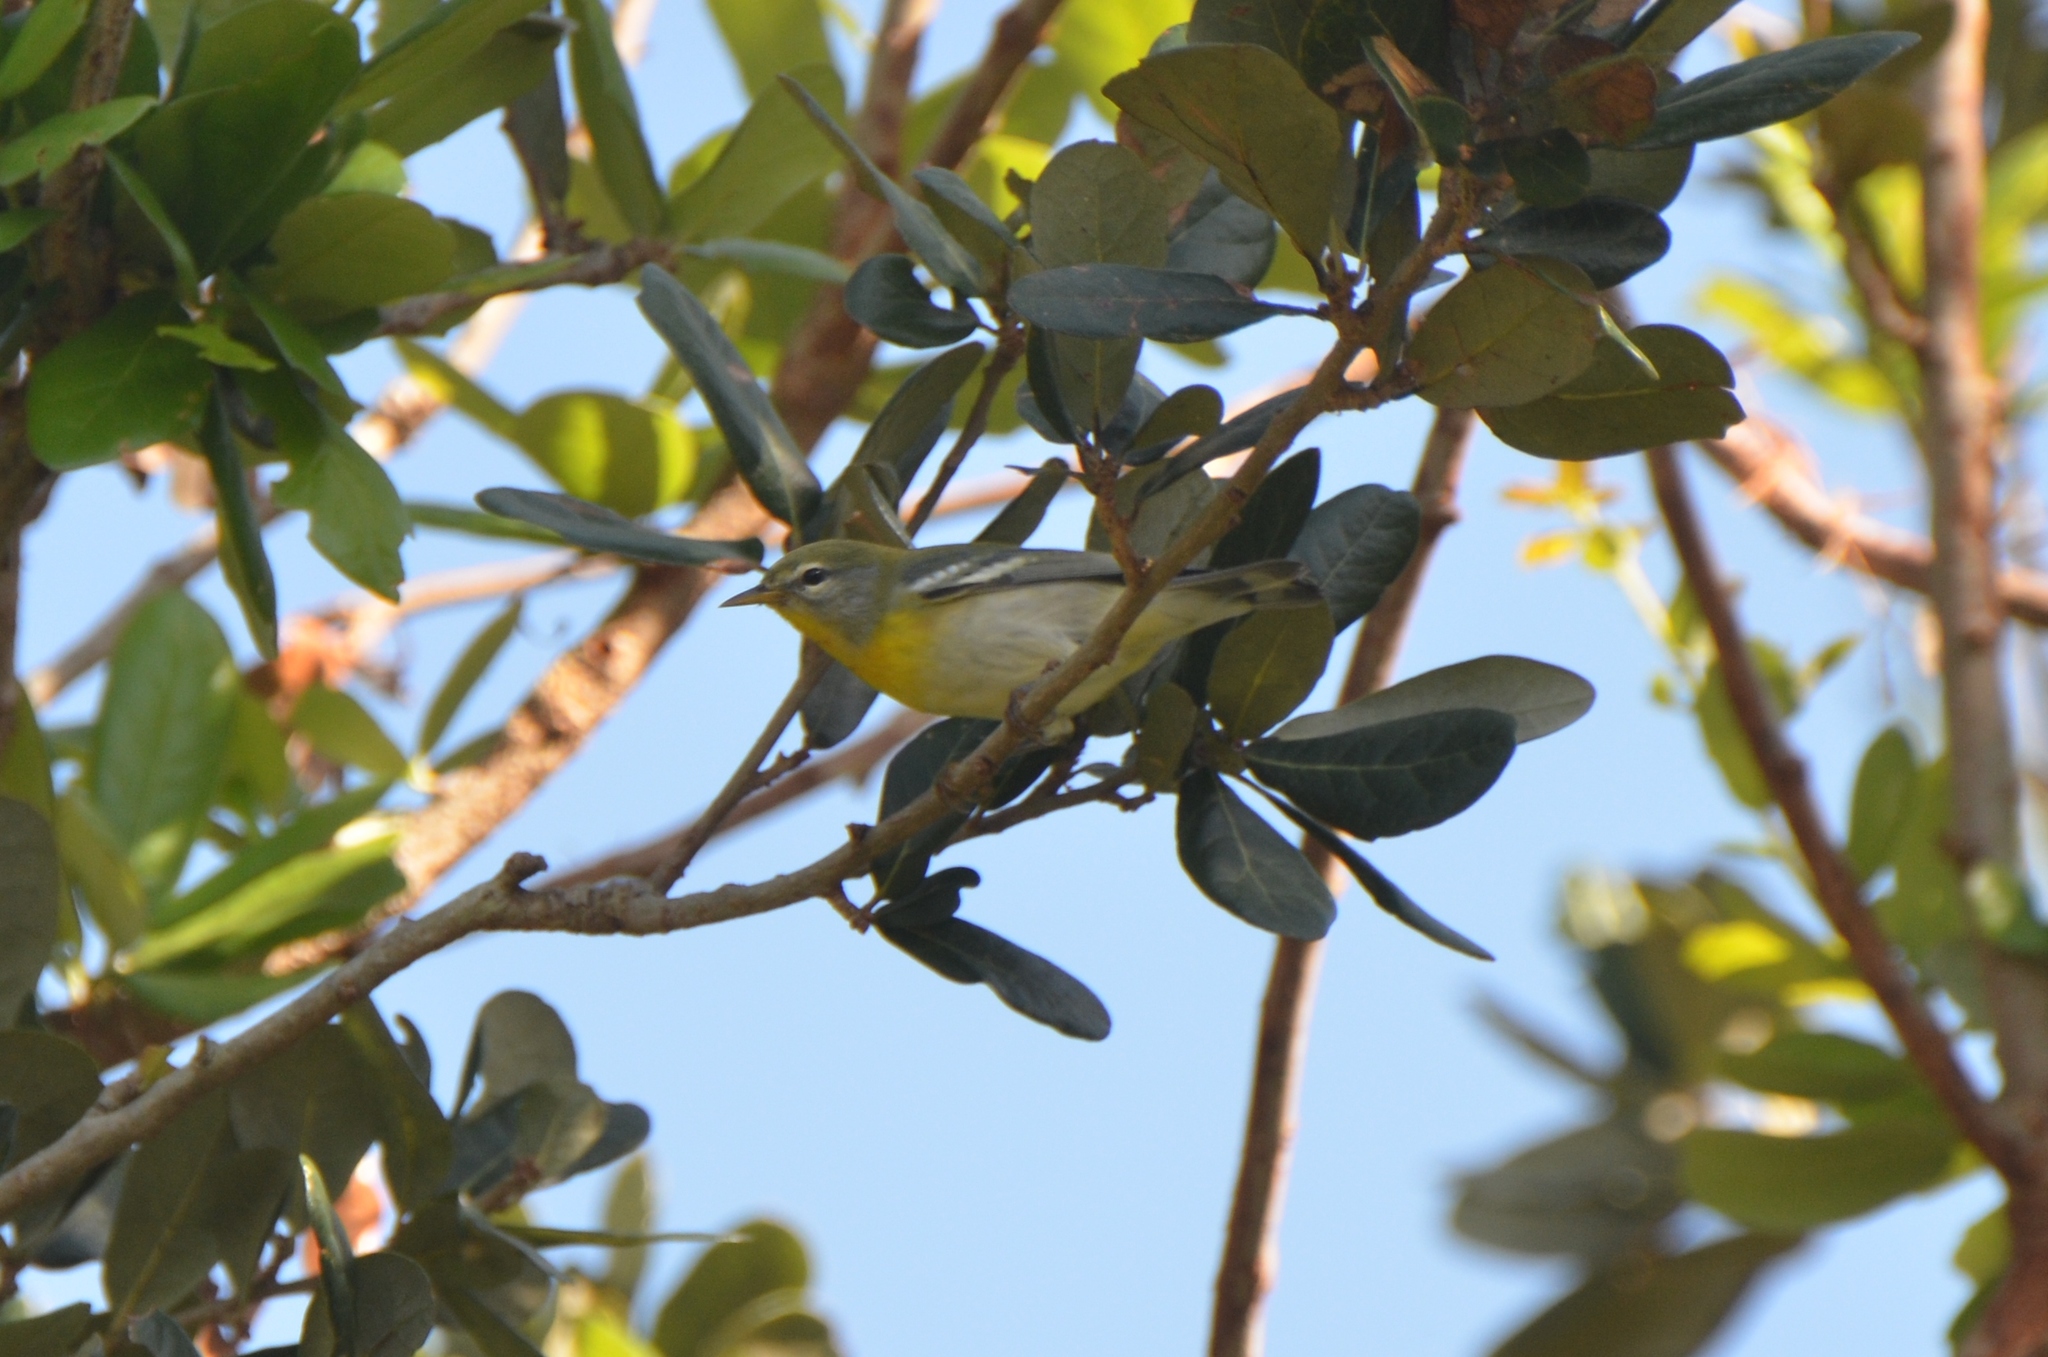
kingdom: Animalia
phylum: Chordata
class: Aves
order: Passeriformes
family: Parulidae
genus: Setophaga
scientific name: Setophaga americana
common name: Northern parula
